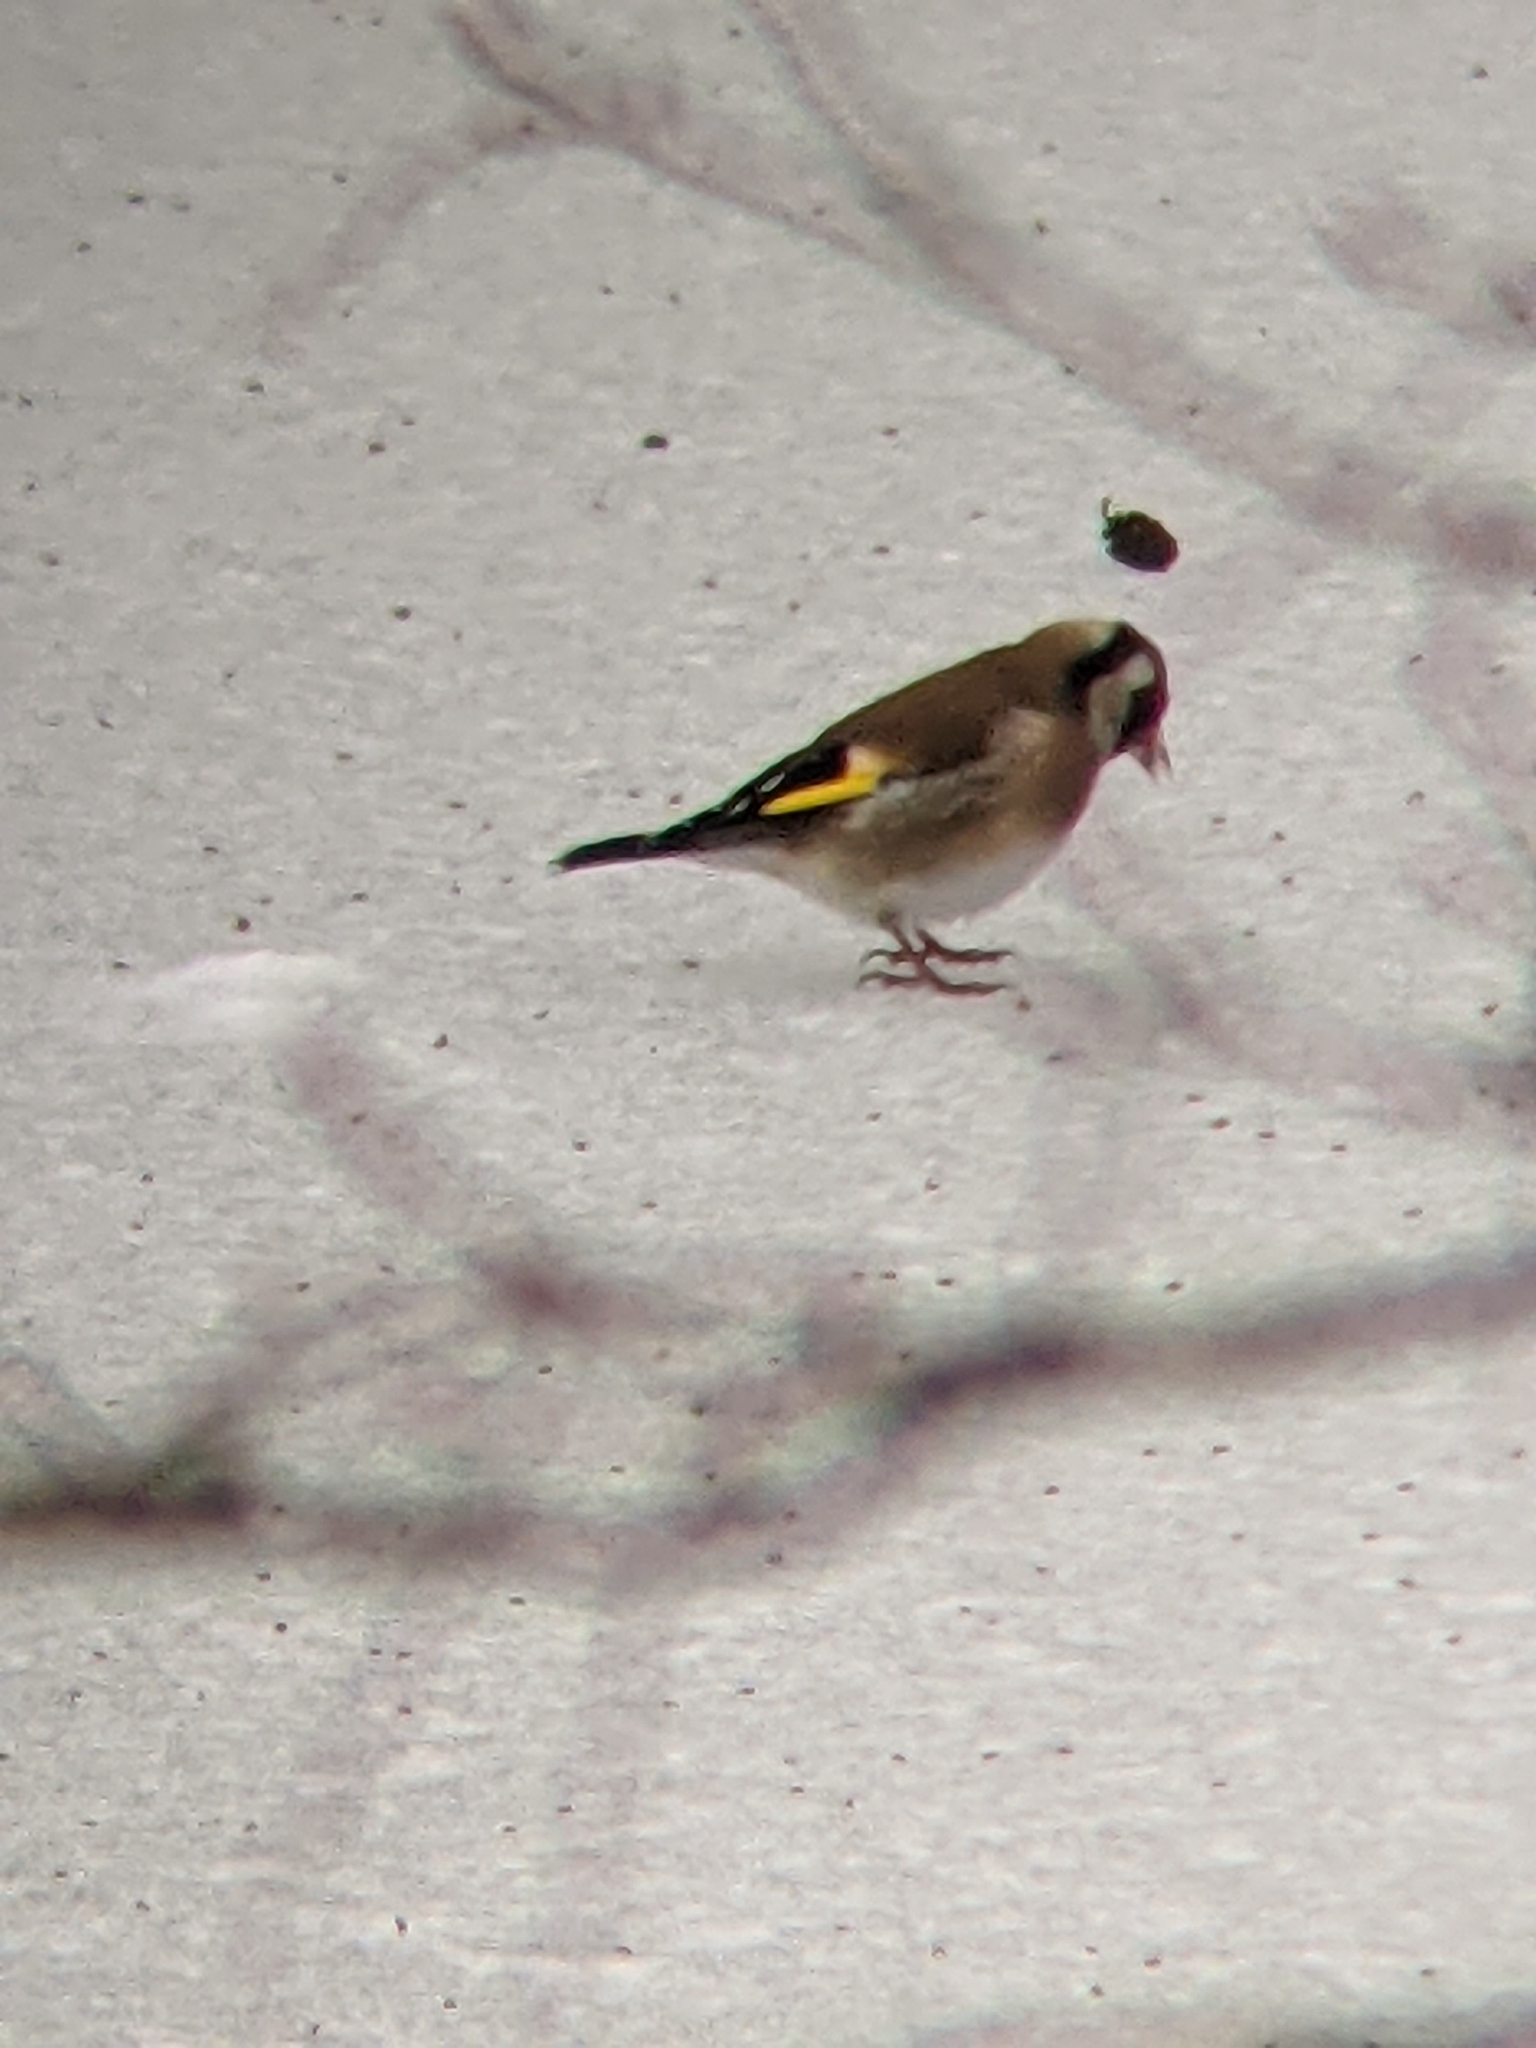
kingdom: Animalia
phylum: Chordata
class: Aves
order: Passeriformes
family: Fringillidae
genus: Carduelis
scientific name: Carduelis carduelis
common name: European goldfinch
